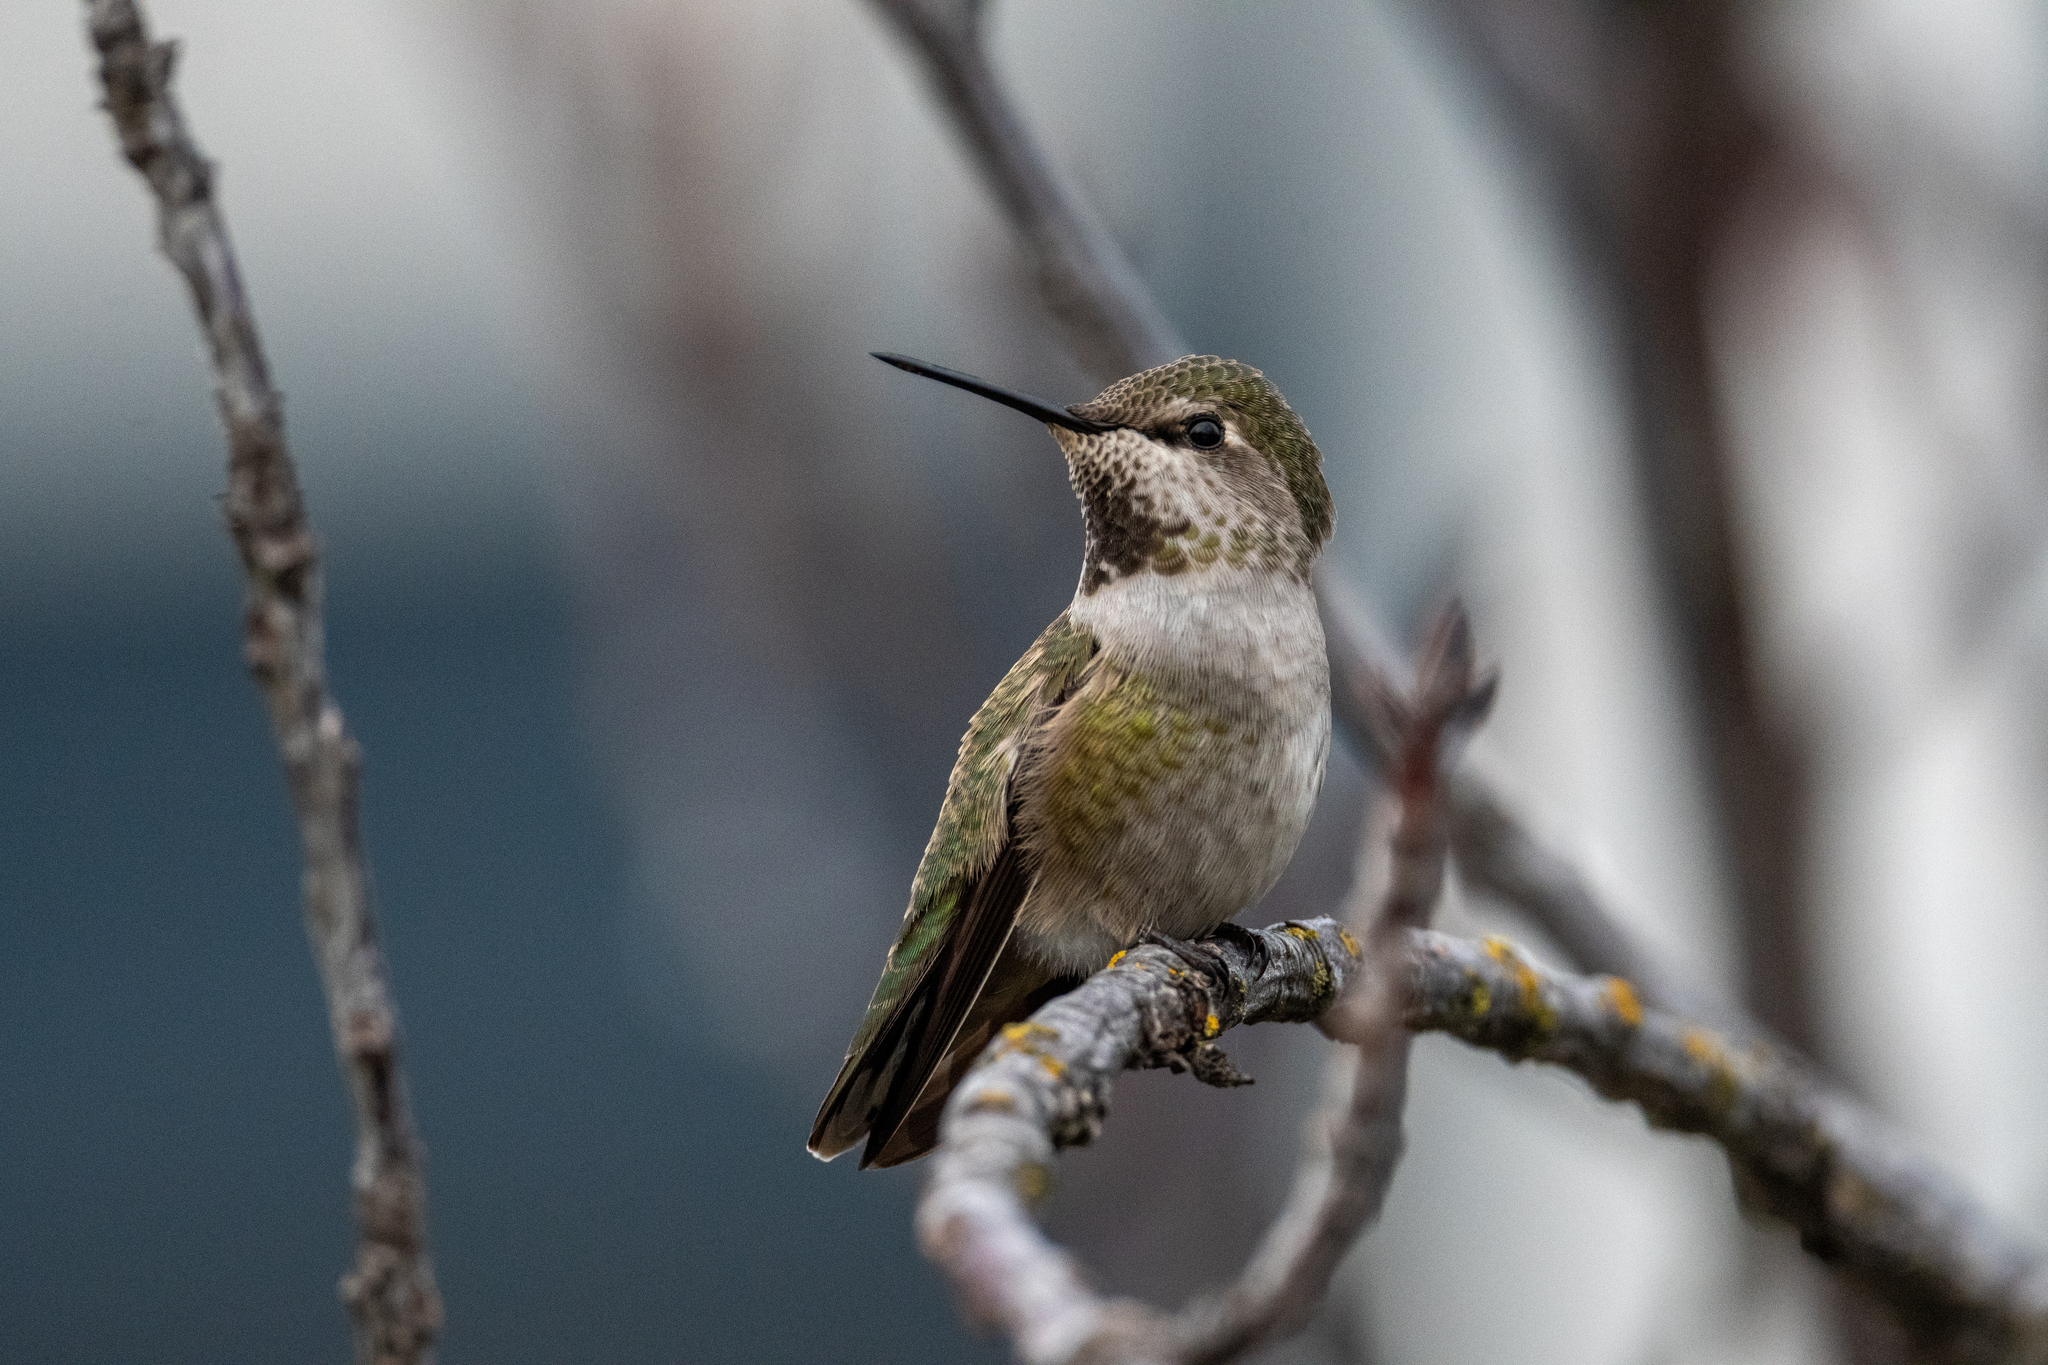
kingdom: Animalia
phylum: Chordata
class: Aves
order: Apodiformes
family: Trochilidae
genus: Calypte
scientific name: Calypte anna
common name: Anna's hummingbird
